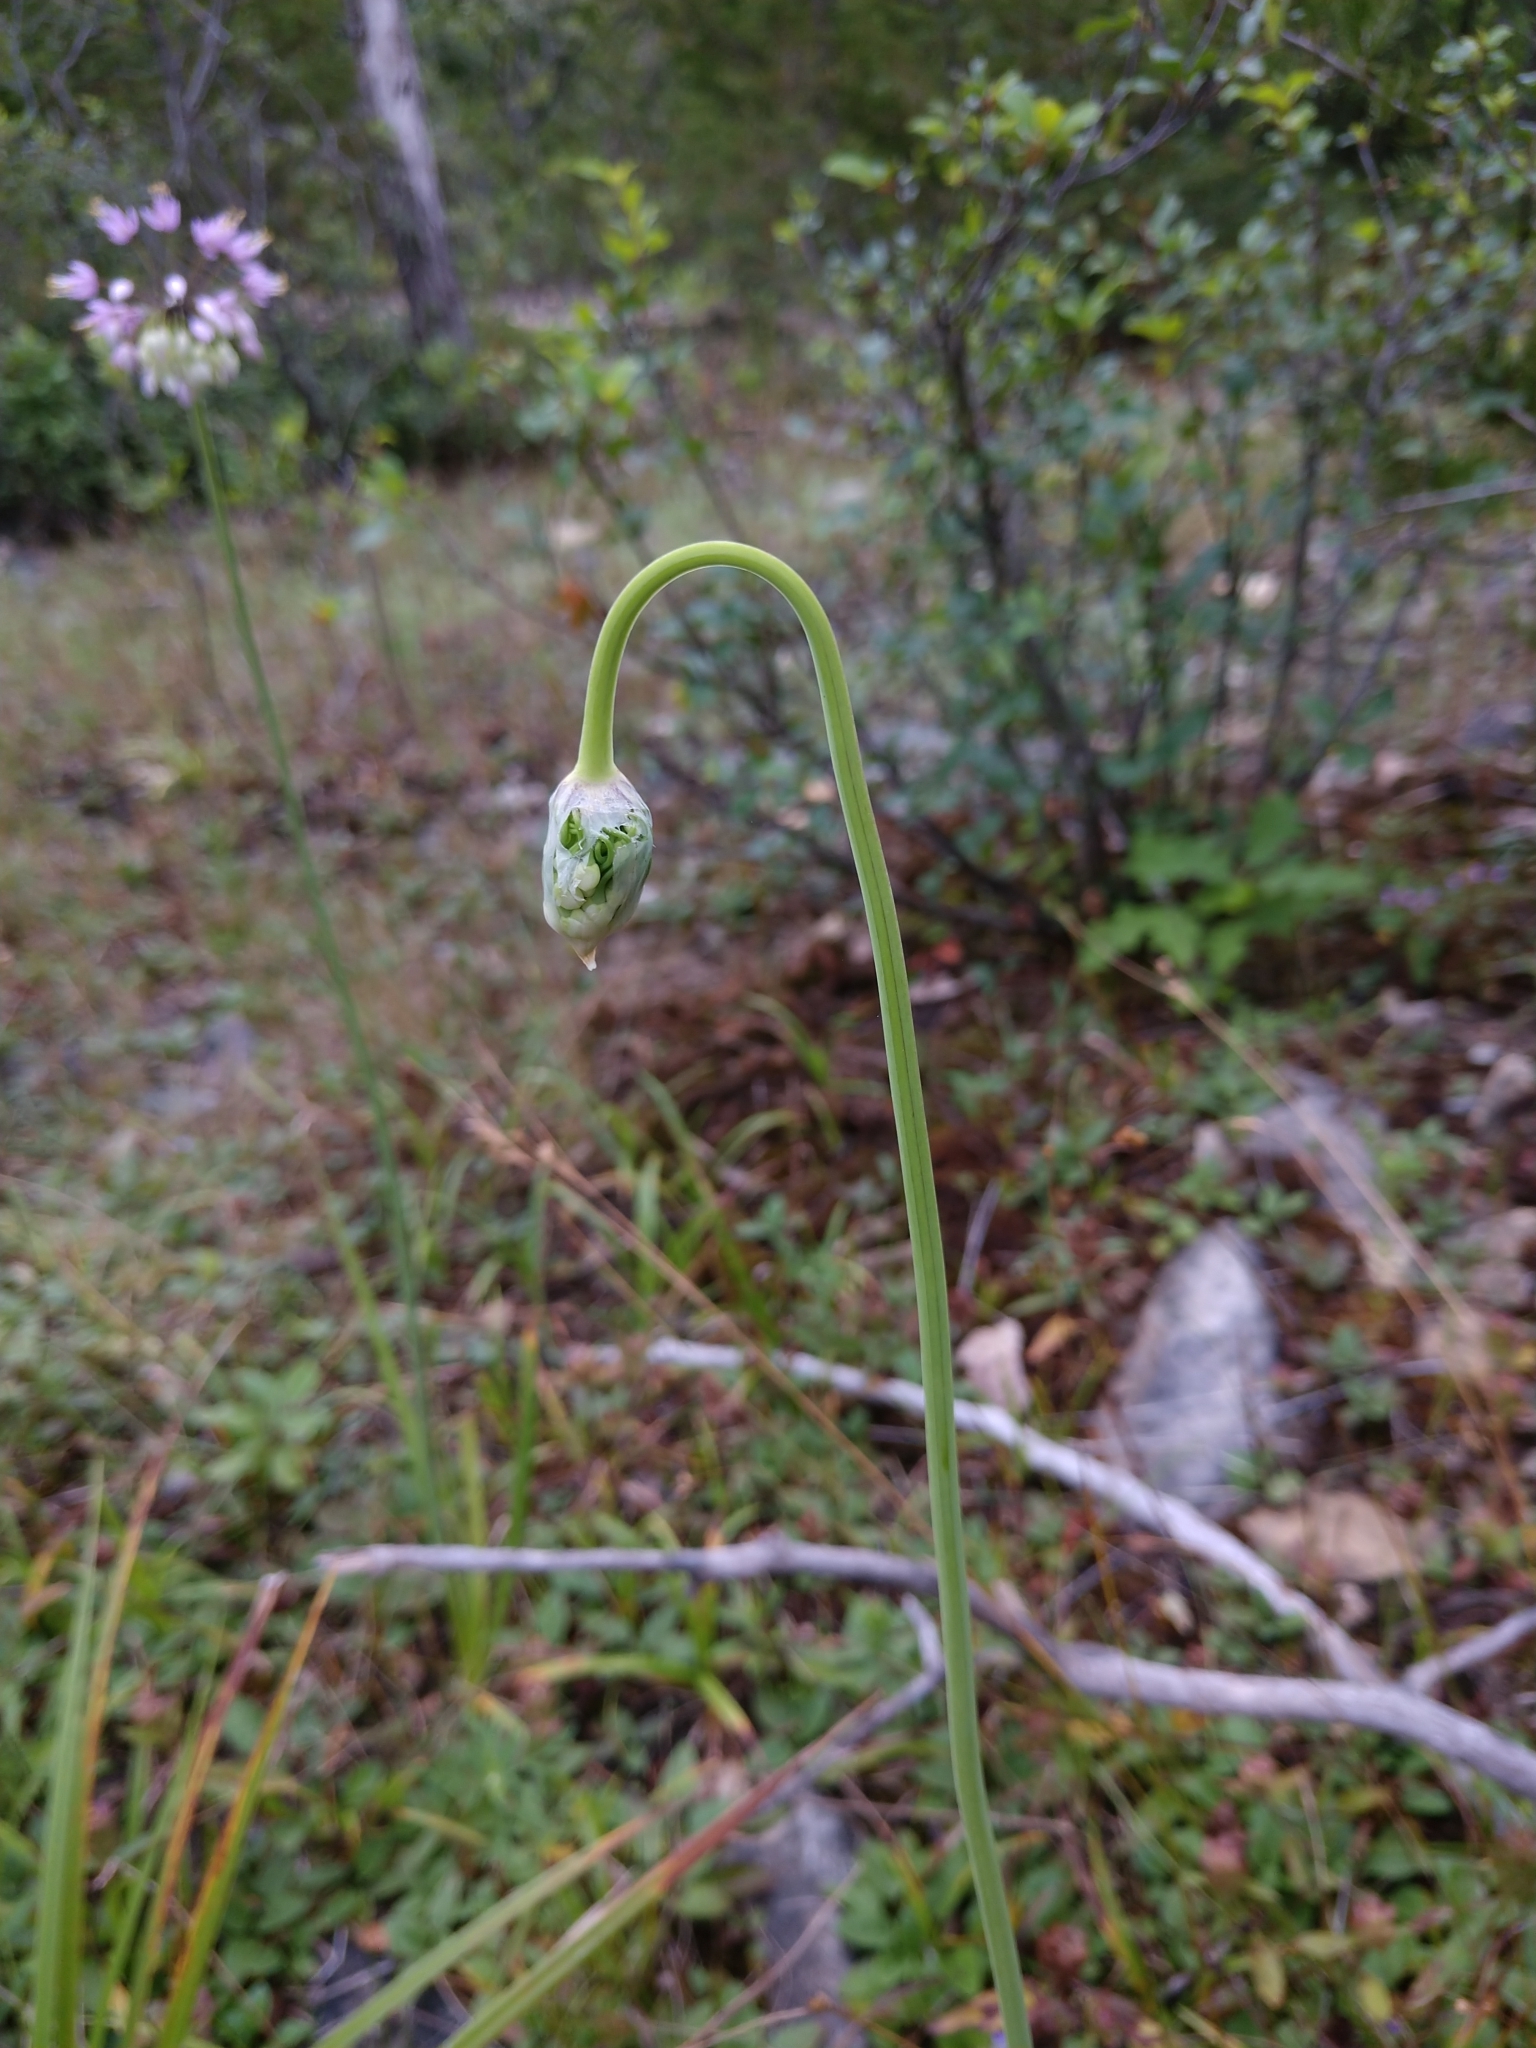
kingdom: Plantae
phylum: Tracheophyta
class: Liliopsida
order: Asparagales
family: Amaryllidaceae
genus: Allium
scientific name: Allium cernuum
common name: Nodding onion
